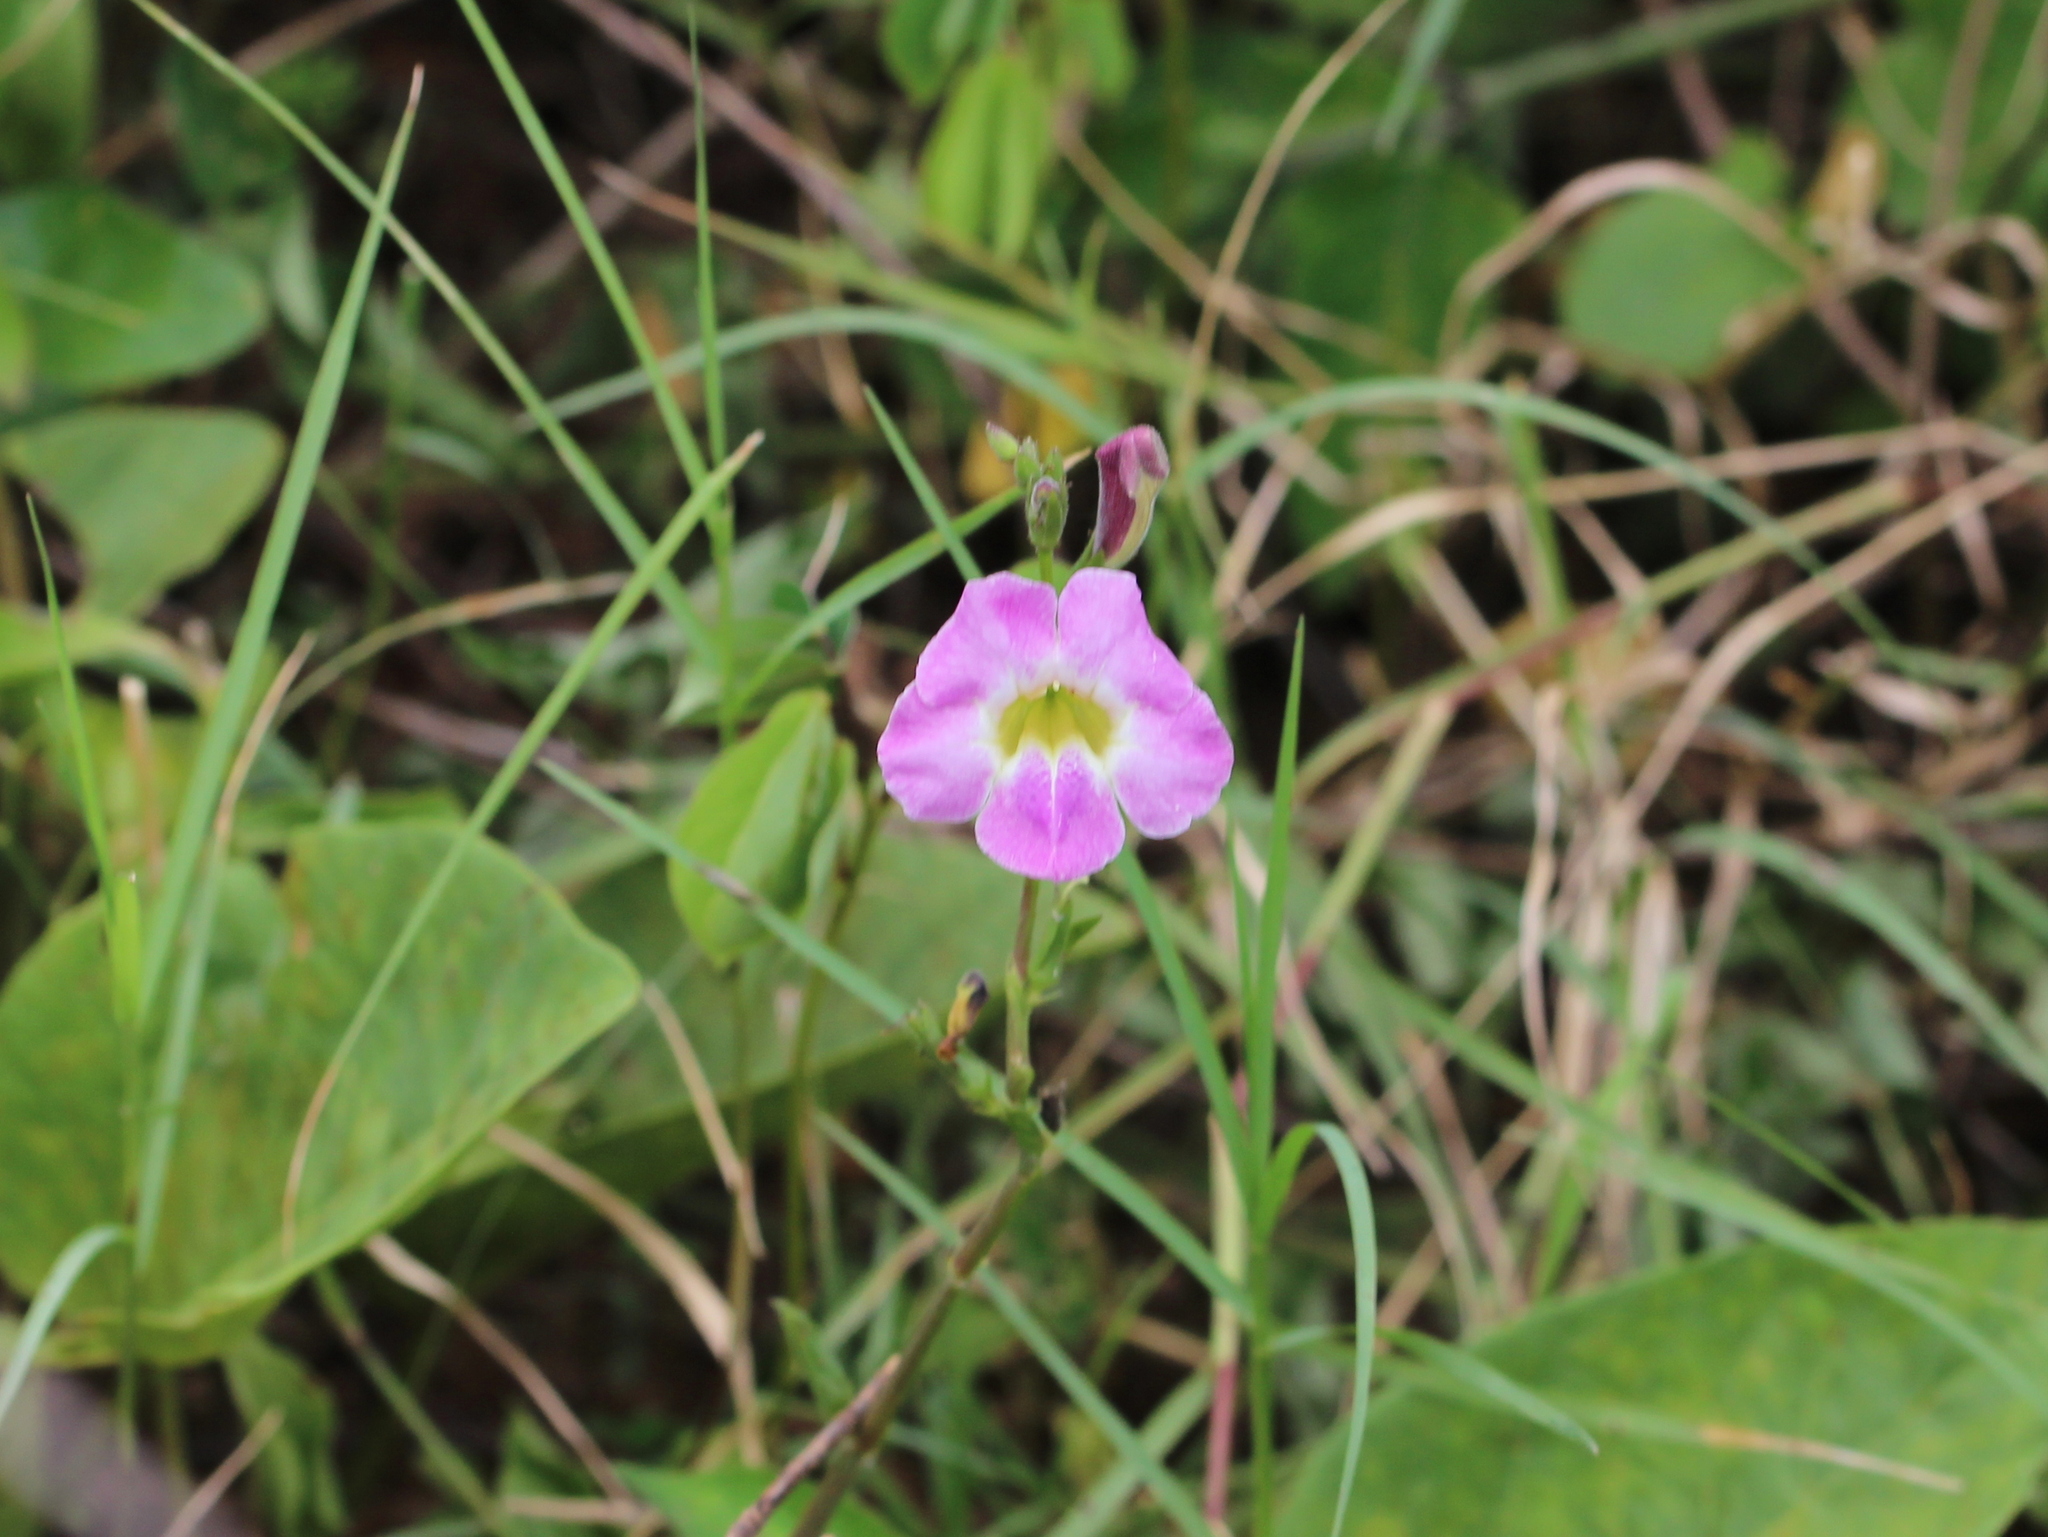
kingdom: Plantae
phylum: Tracheophyta
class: Magnoliopsida
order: Lamiales
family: Acanthaceae
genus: Asystasia
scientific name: Asystasia gangetica
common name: Chinese violet
